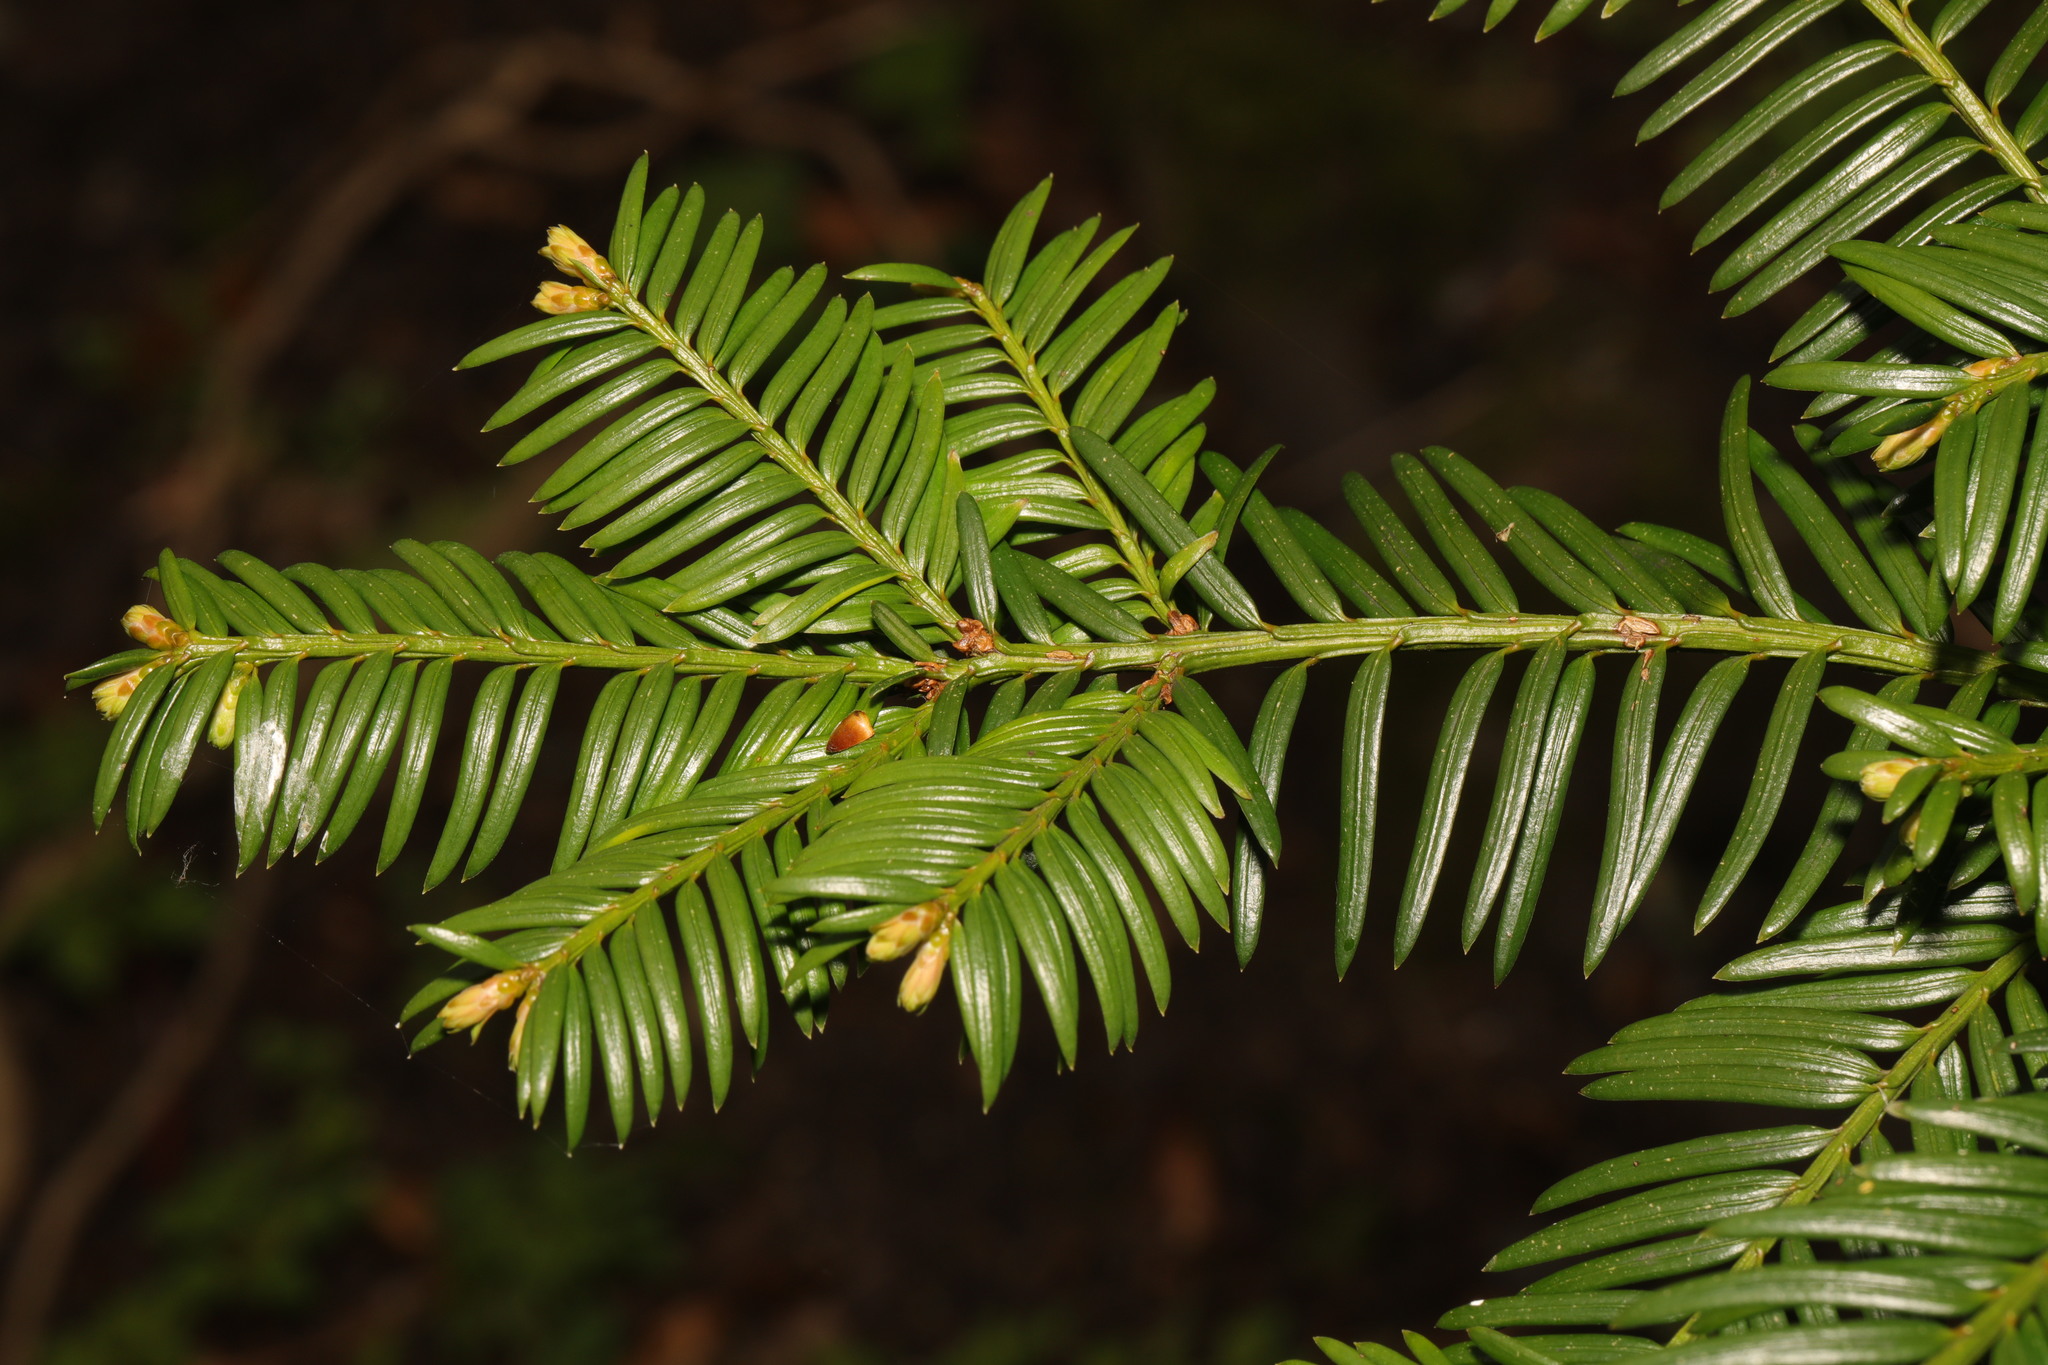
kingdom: Plantae
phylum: Tracheophyta
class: Pinopsida
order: Pinales
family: Taxaceae
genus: Taxus
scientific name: Taxus baccata
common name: Yew
